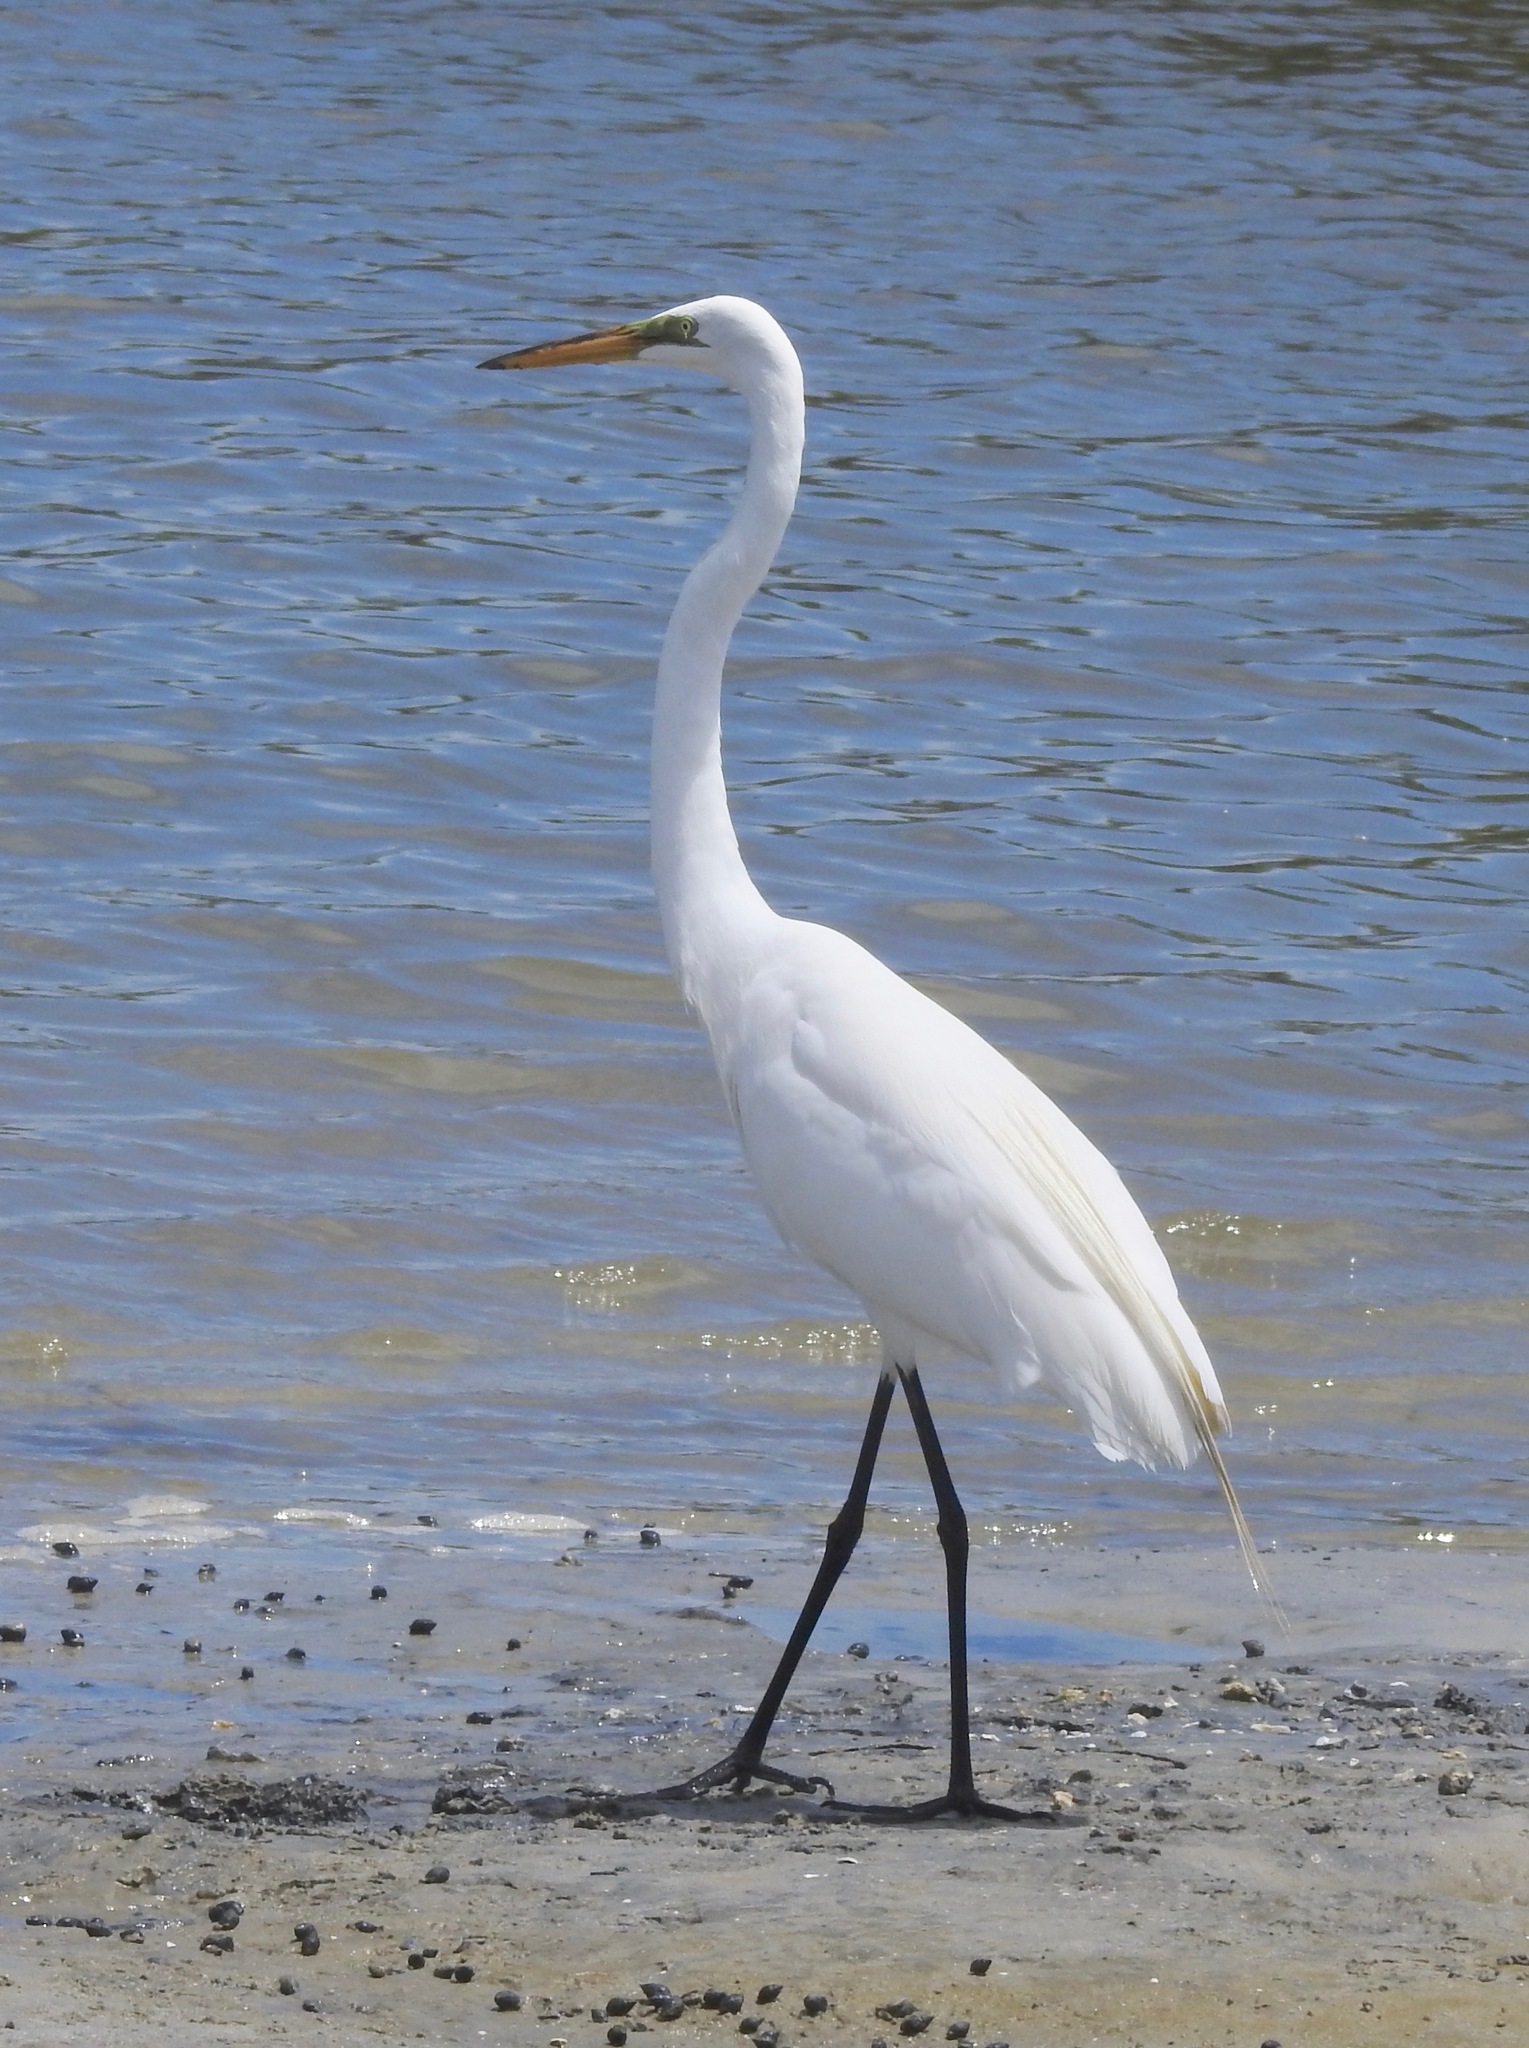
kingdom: Animalia
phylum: Chordata
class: Aves
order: Pelecaniformes
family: Ardeidae
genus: Ardea
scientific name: Ardea alba
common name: Great egret
